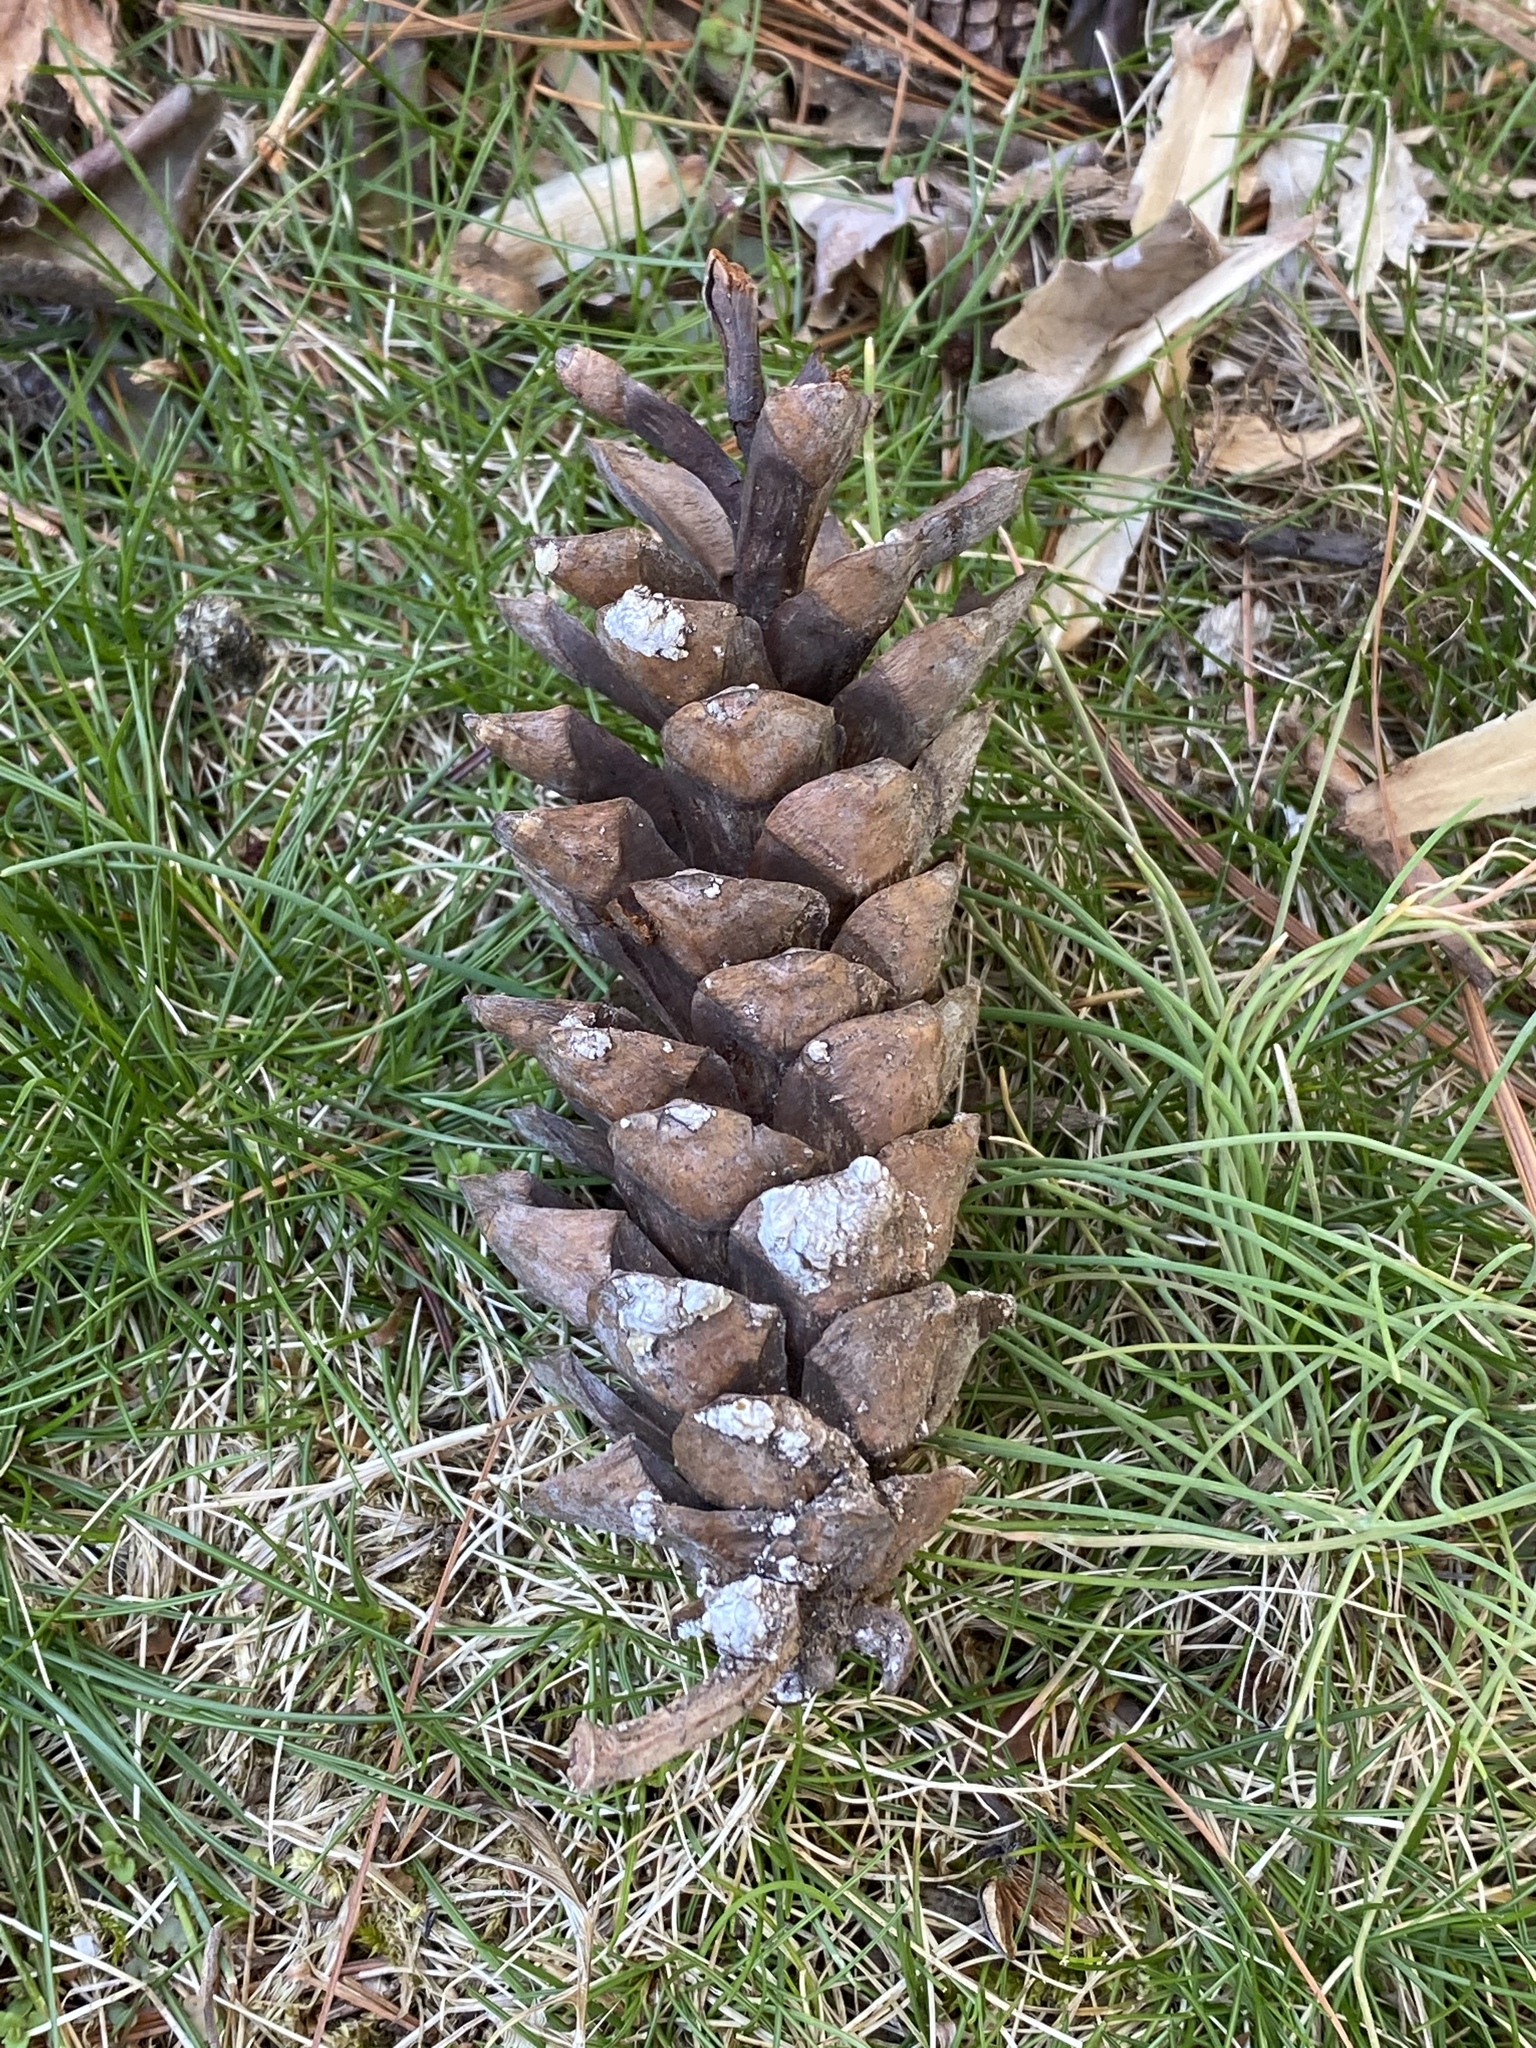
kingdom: Plantae
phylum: Tracheophyta
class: Pinopsida
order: Pinales
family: Pinaceae
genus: Pinus
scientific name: Pinus strobus
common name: Weymouth pine
